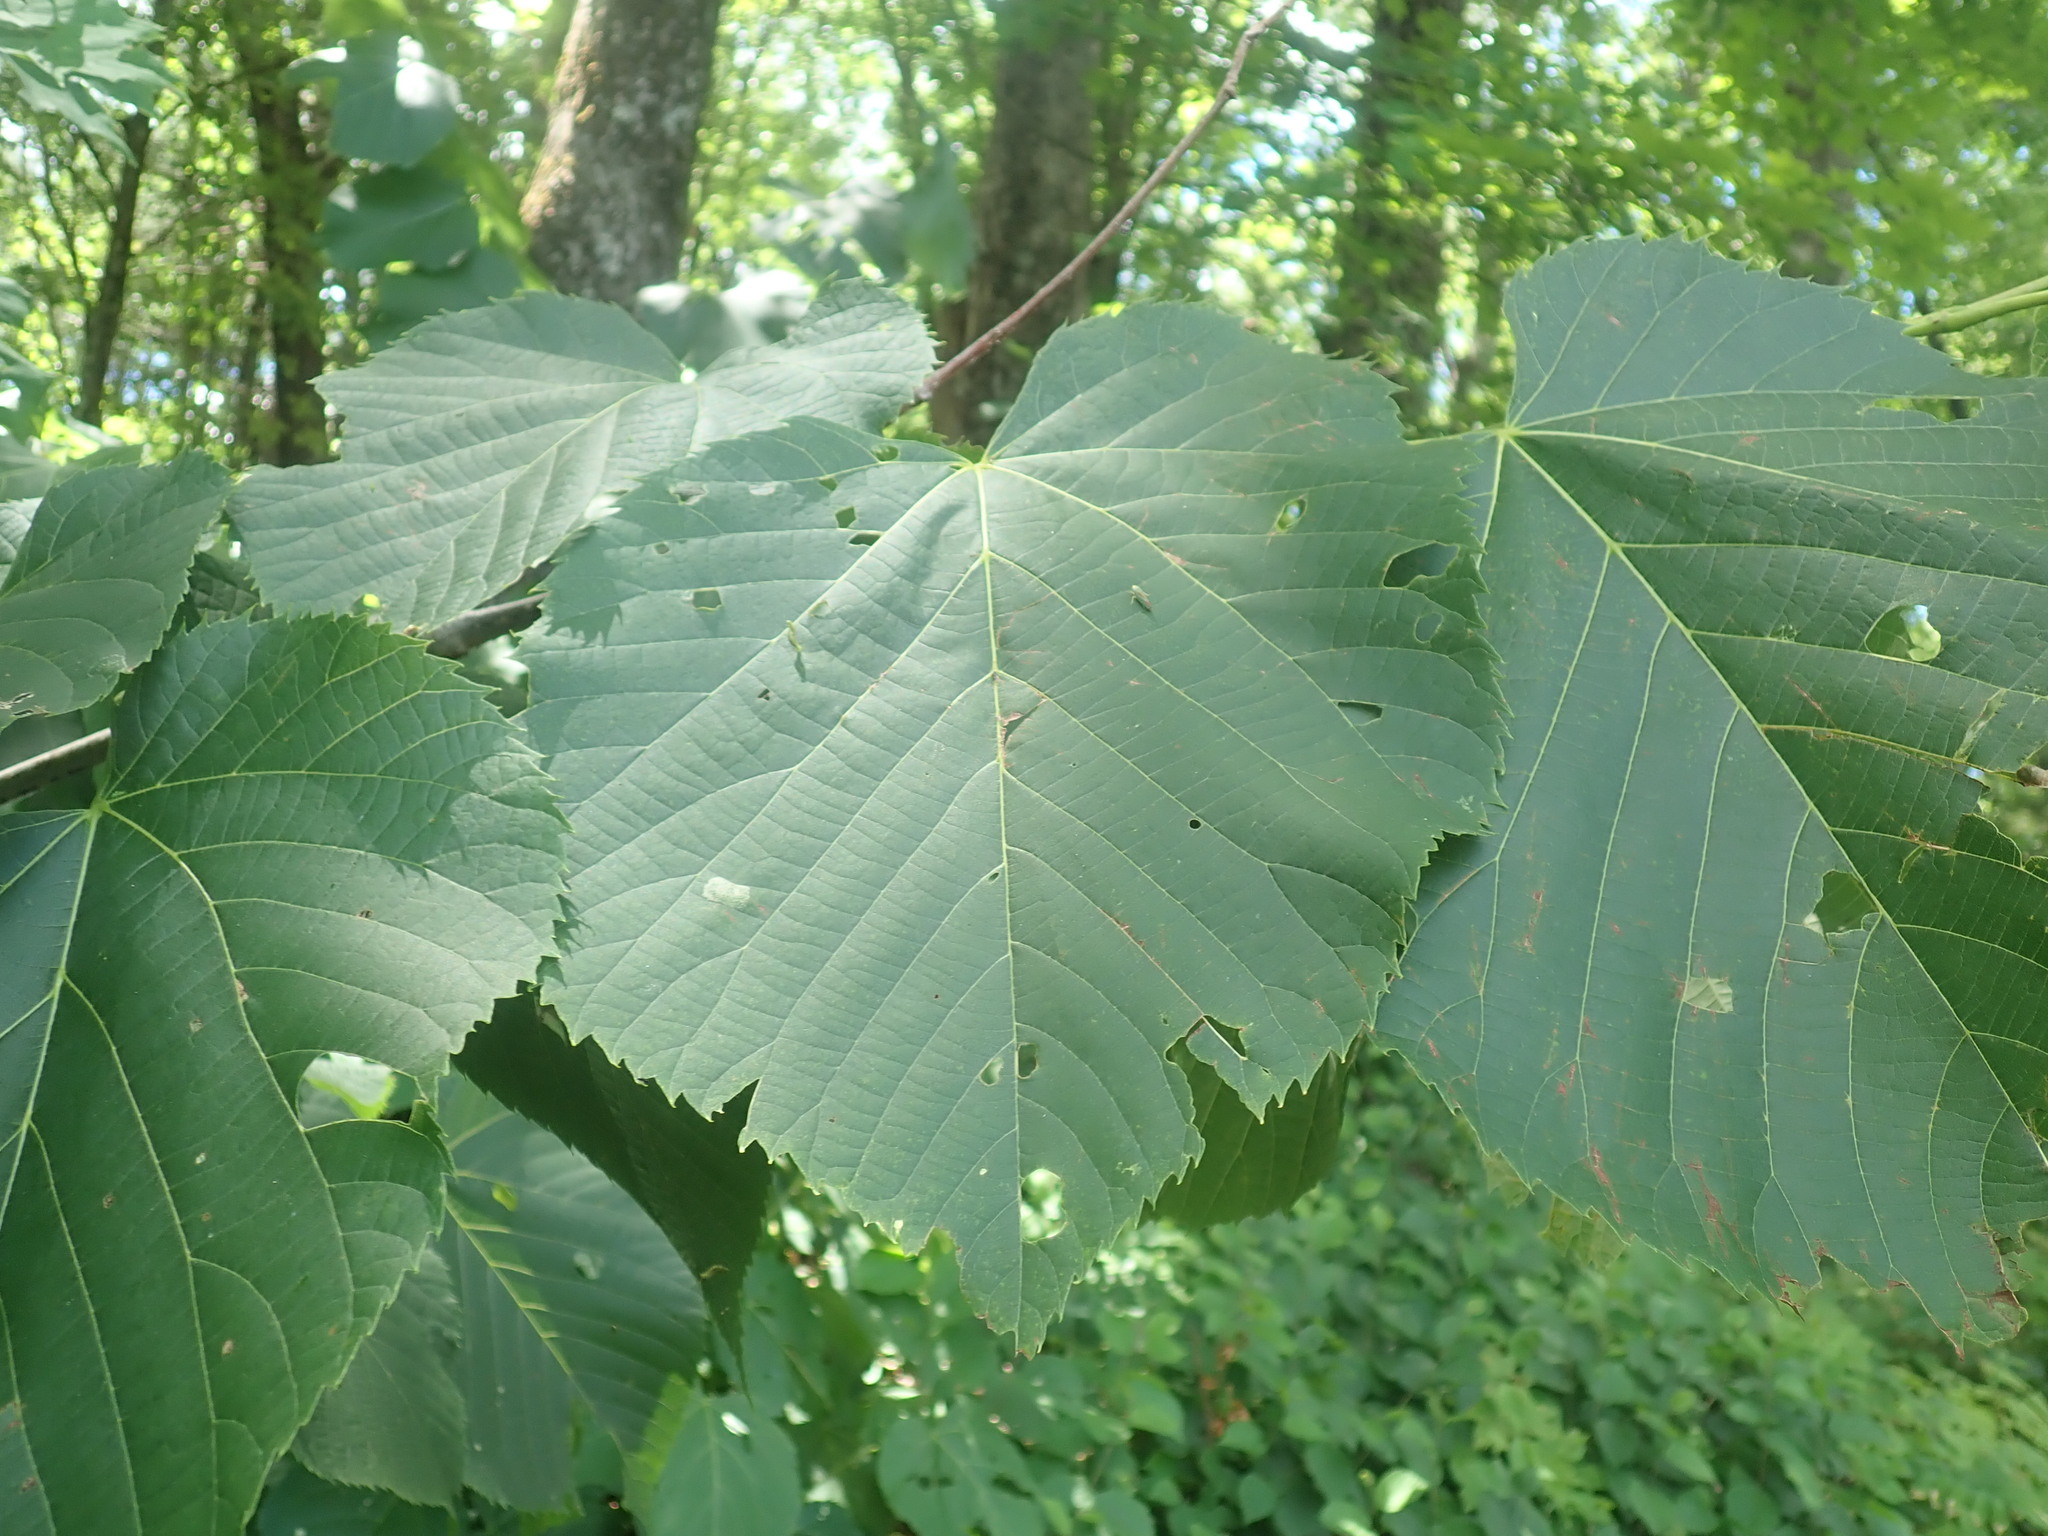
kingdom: Plantae
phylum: Tracheophyta
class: Magnoliopsida
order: Malvales
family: Malvaceae
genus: Tilia
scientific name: Tilia americana
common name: Basswood
